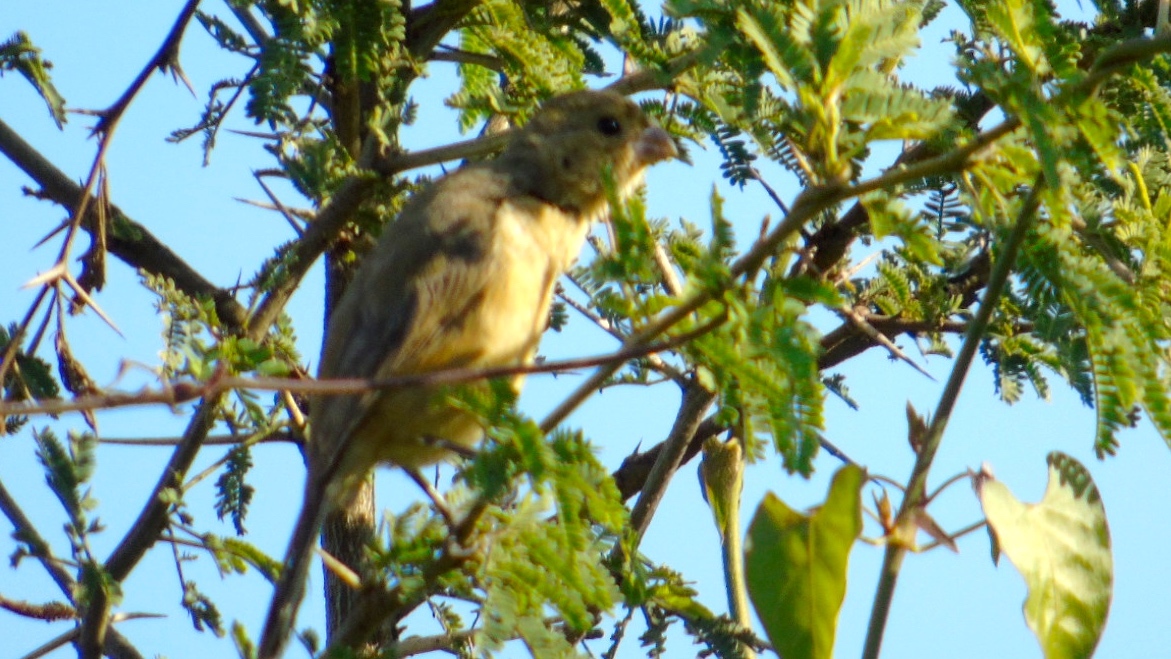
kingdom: Animalia
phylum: Chordata
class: Aves
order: Passeriformes
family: Thraupidae
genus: Sporophila
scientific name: Sporophila torqueola
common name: White-collared seedeater
